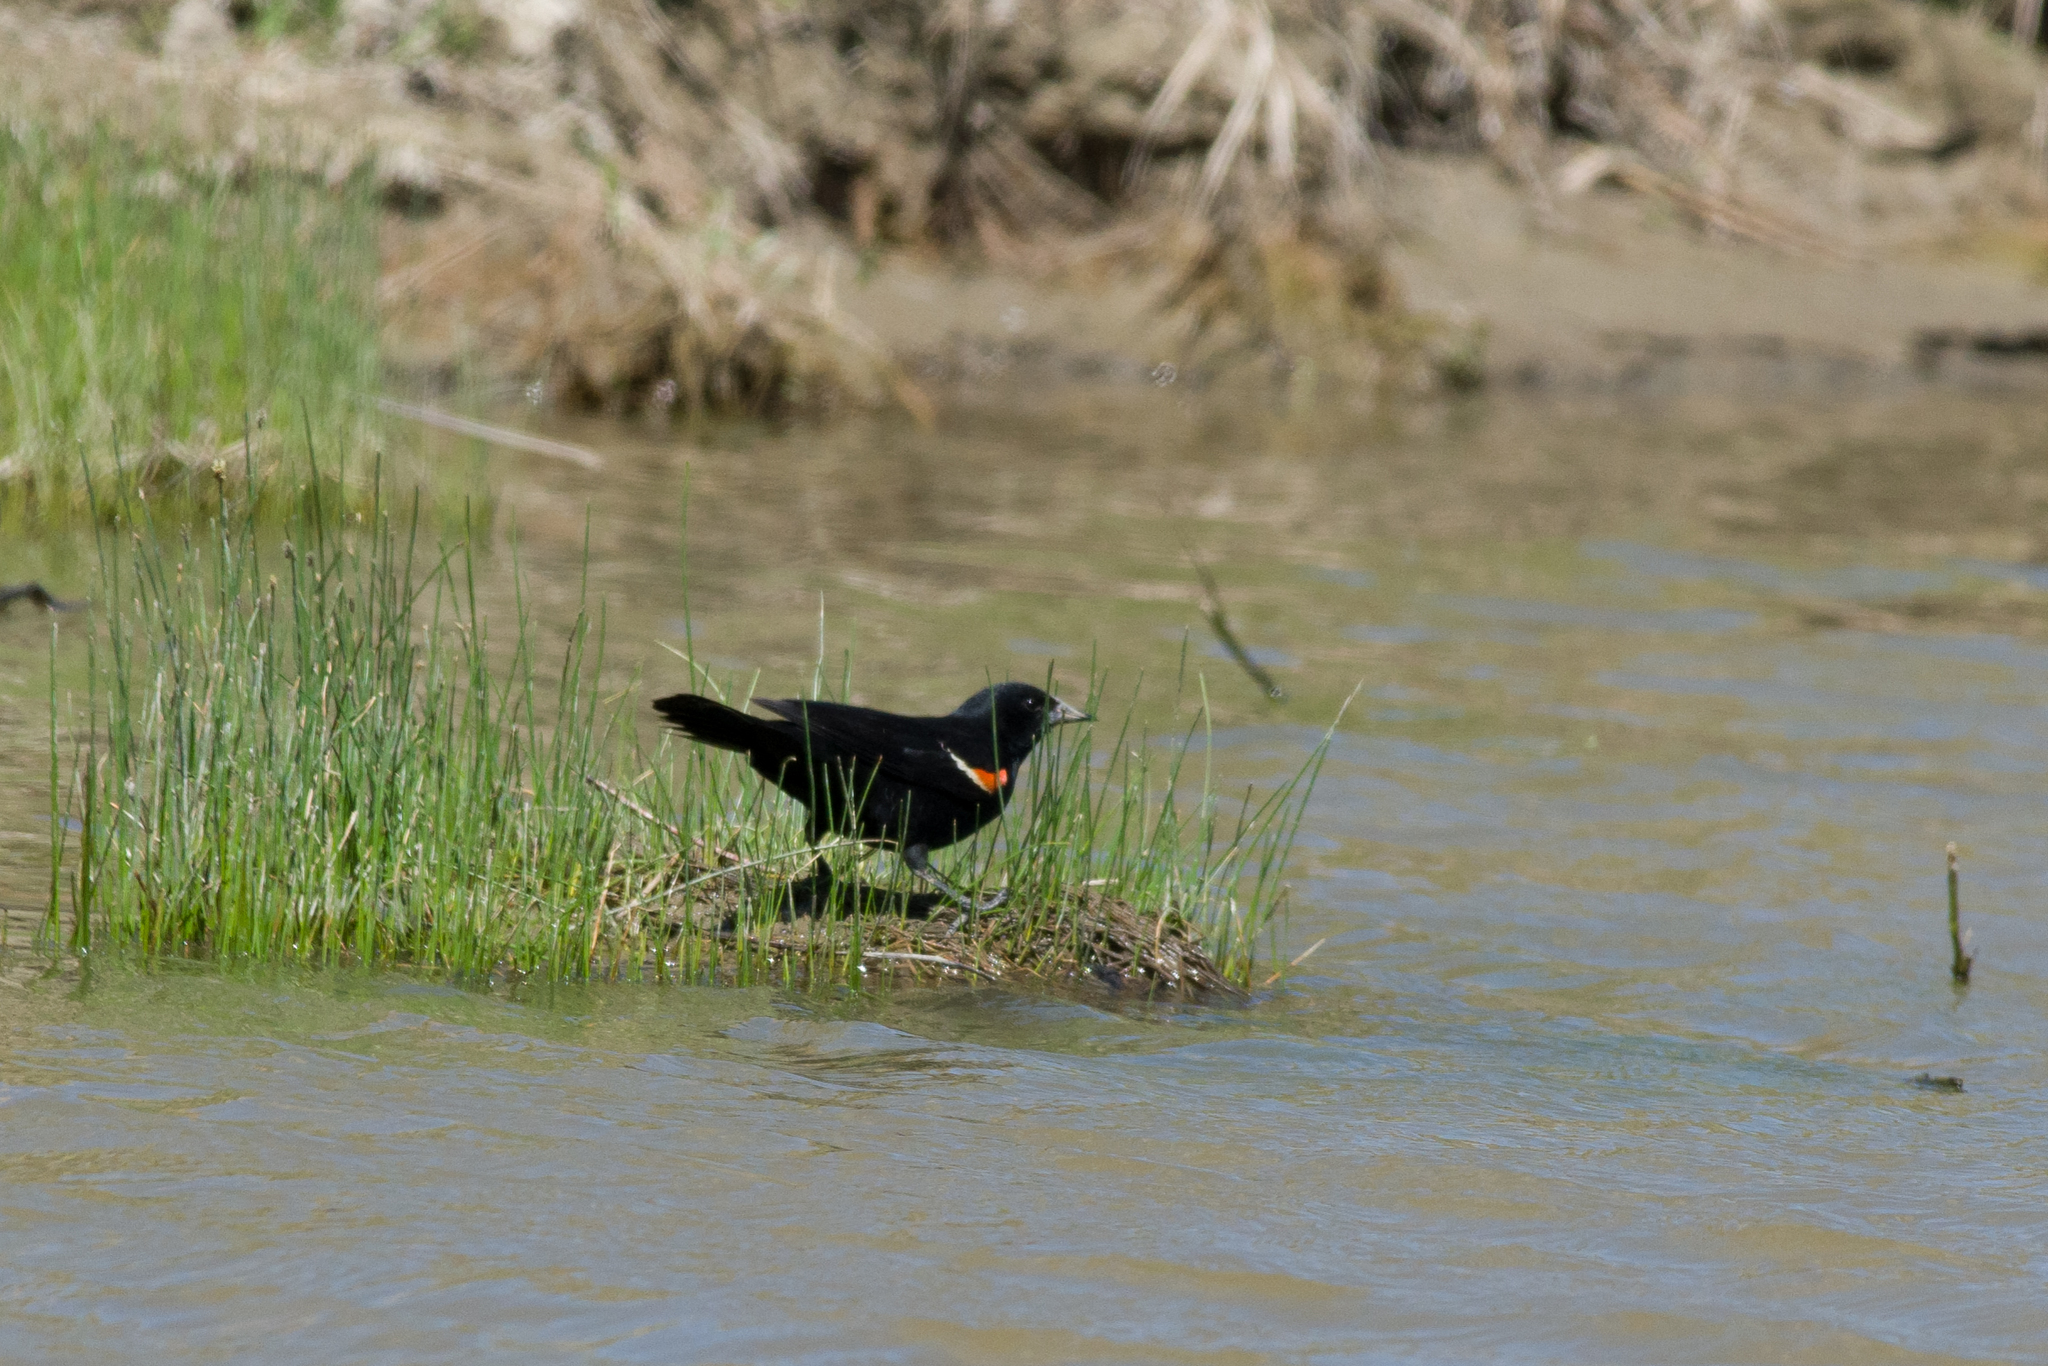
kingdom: Animalia
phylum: Chordata
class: Aves
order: Passeriformes
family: Icteridae
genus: Agelaius
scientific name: Agelaius phoeniceus
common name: Red-winged blackbird
